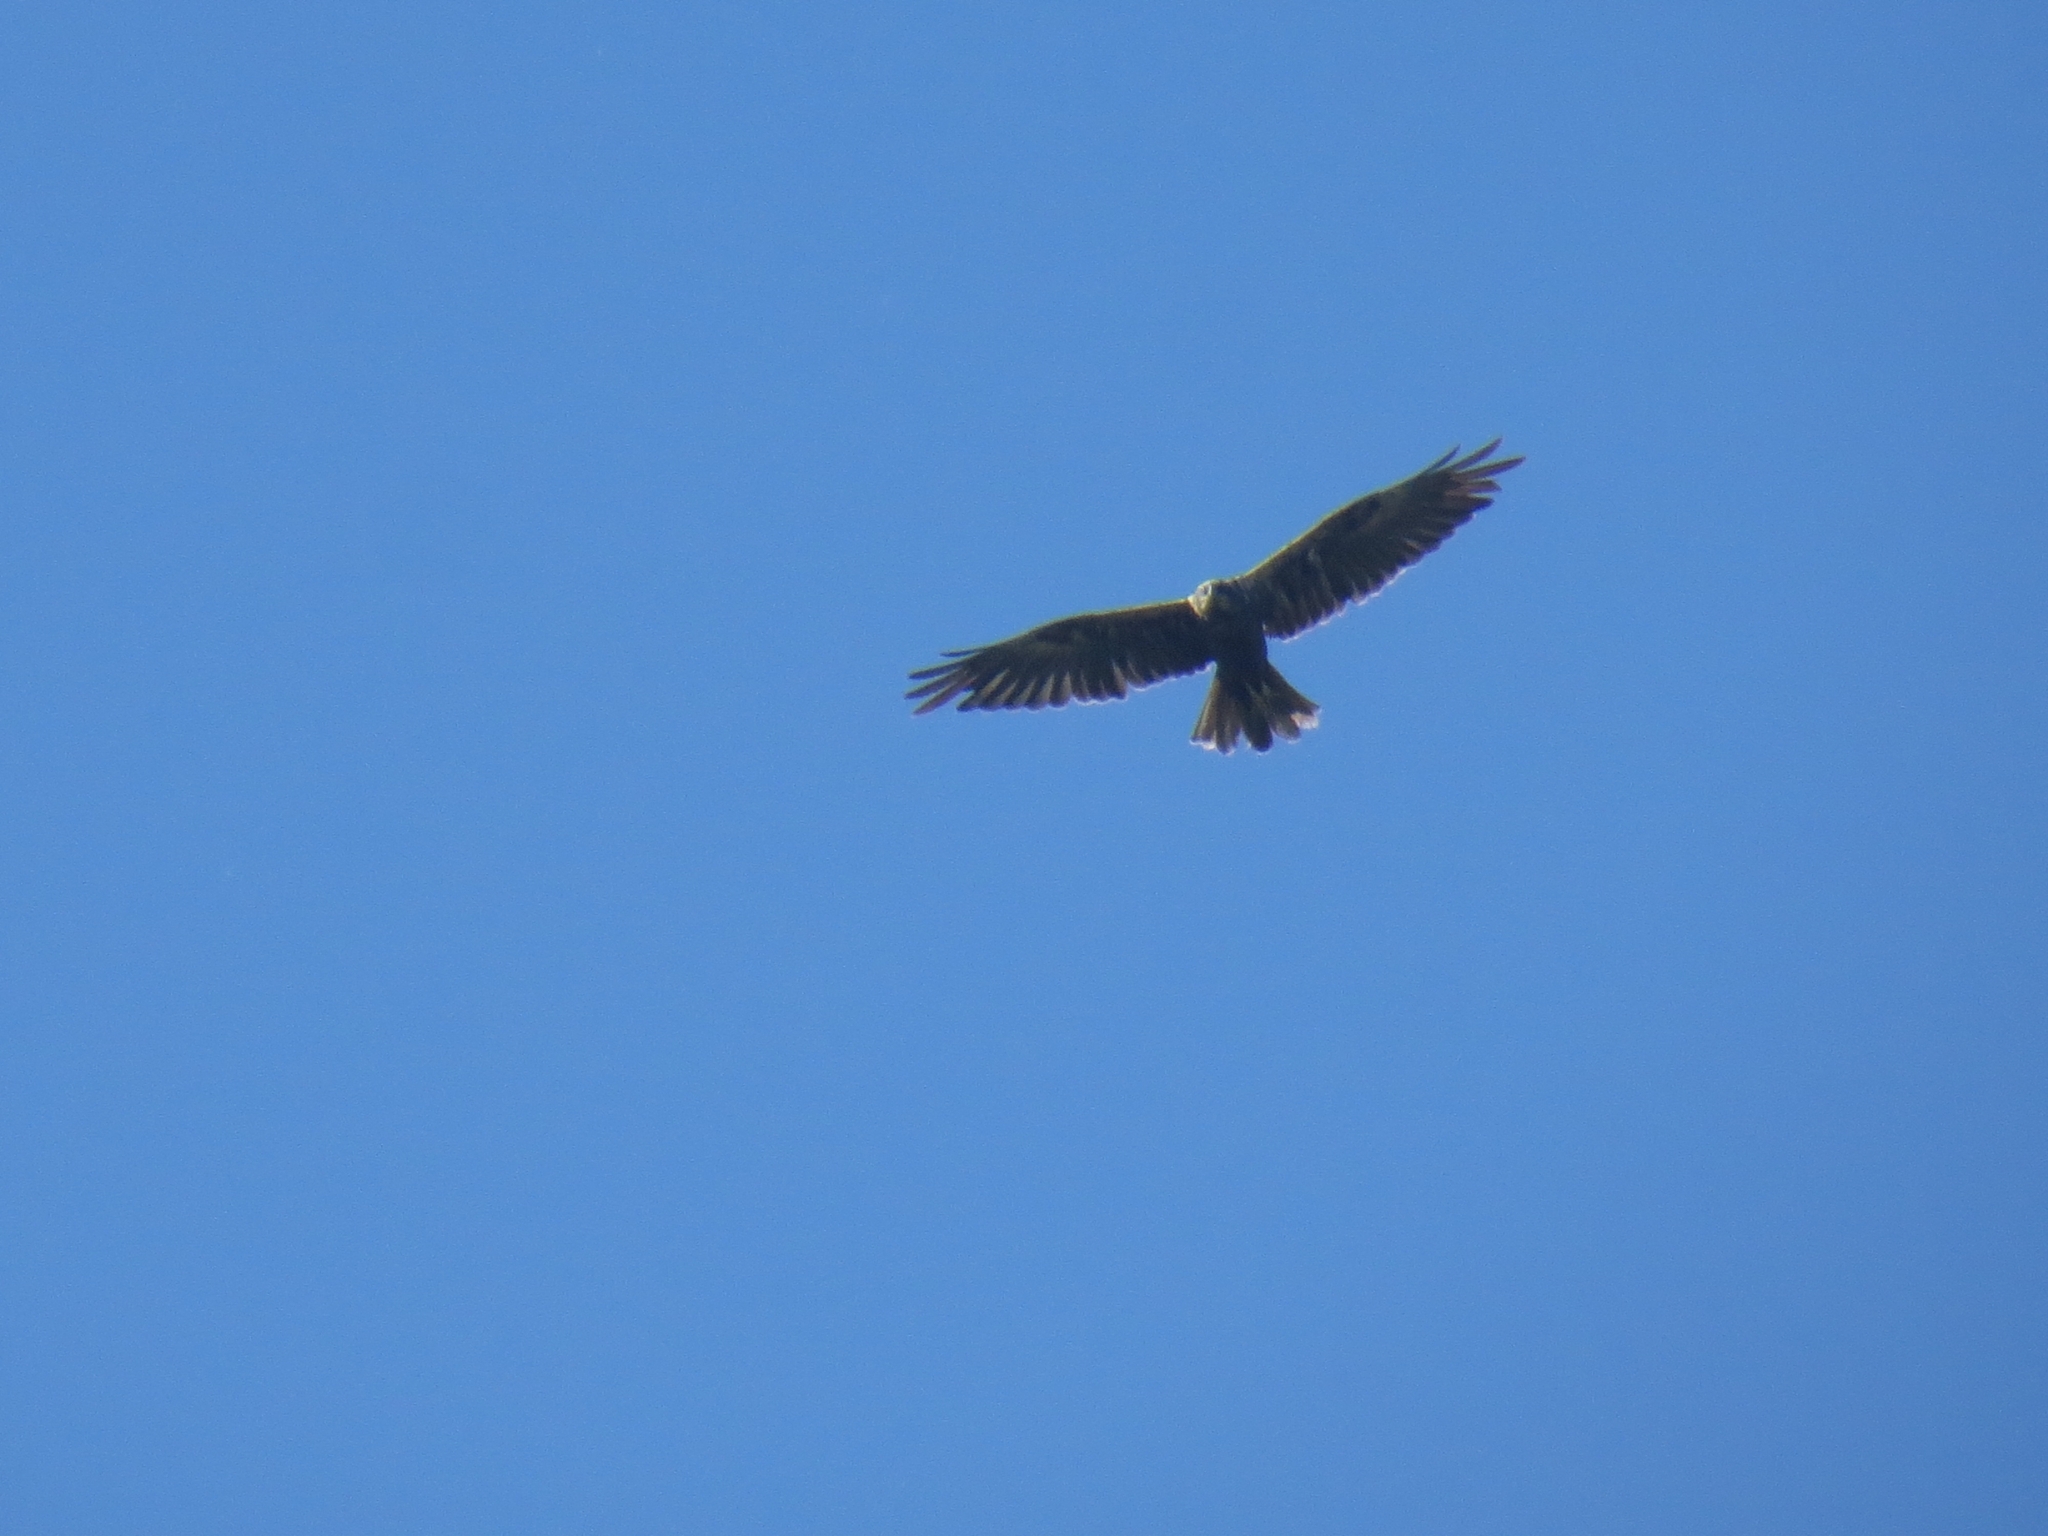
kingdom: Animalia
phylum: Chordata
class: Aves
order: Accipitriformes
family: Accipitridae
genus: Circus
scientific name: Circus aeruginosus
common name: Western marsh harrier
